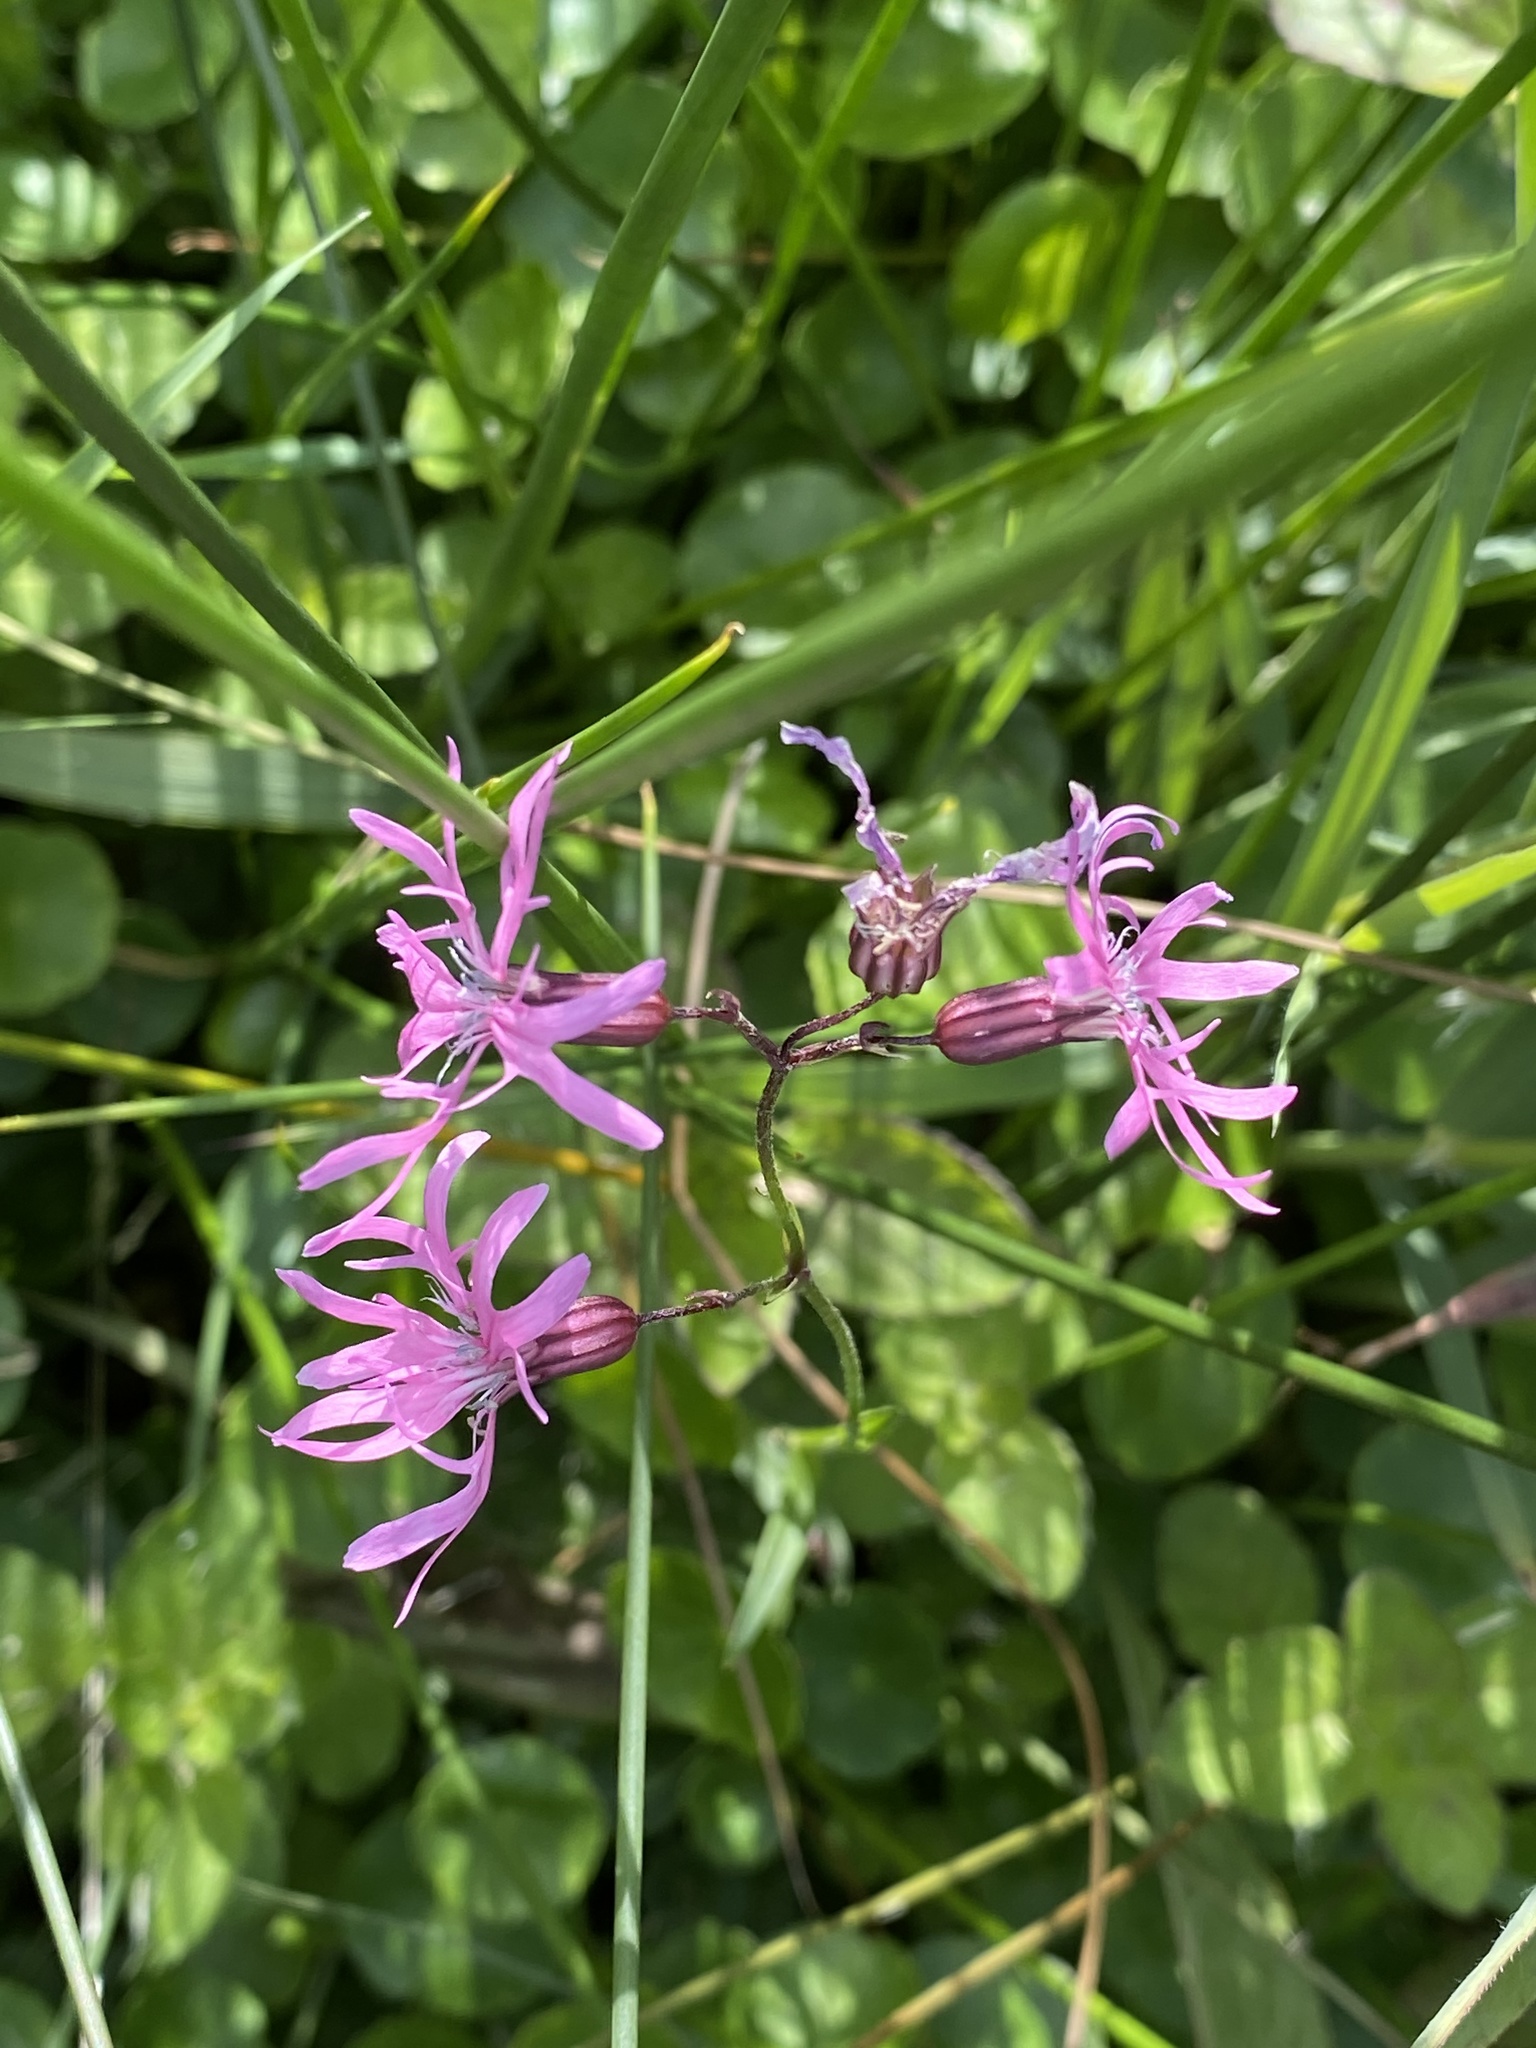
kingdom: Plantae
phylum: Tracheophyta
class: Magnoliopsida
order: Caryophyllales
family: Caryophyllaceae
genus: Silene
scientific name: Silene flos-cuculi
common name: Ragged-robin
